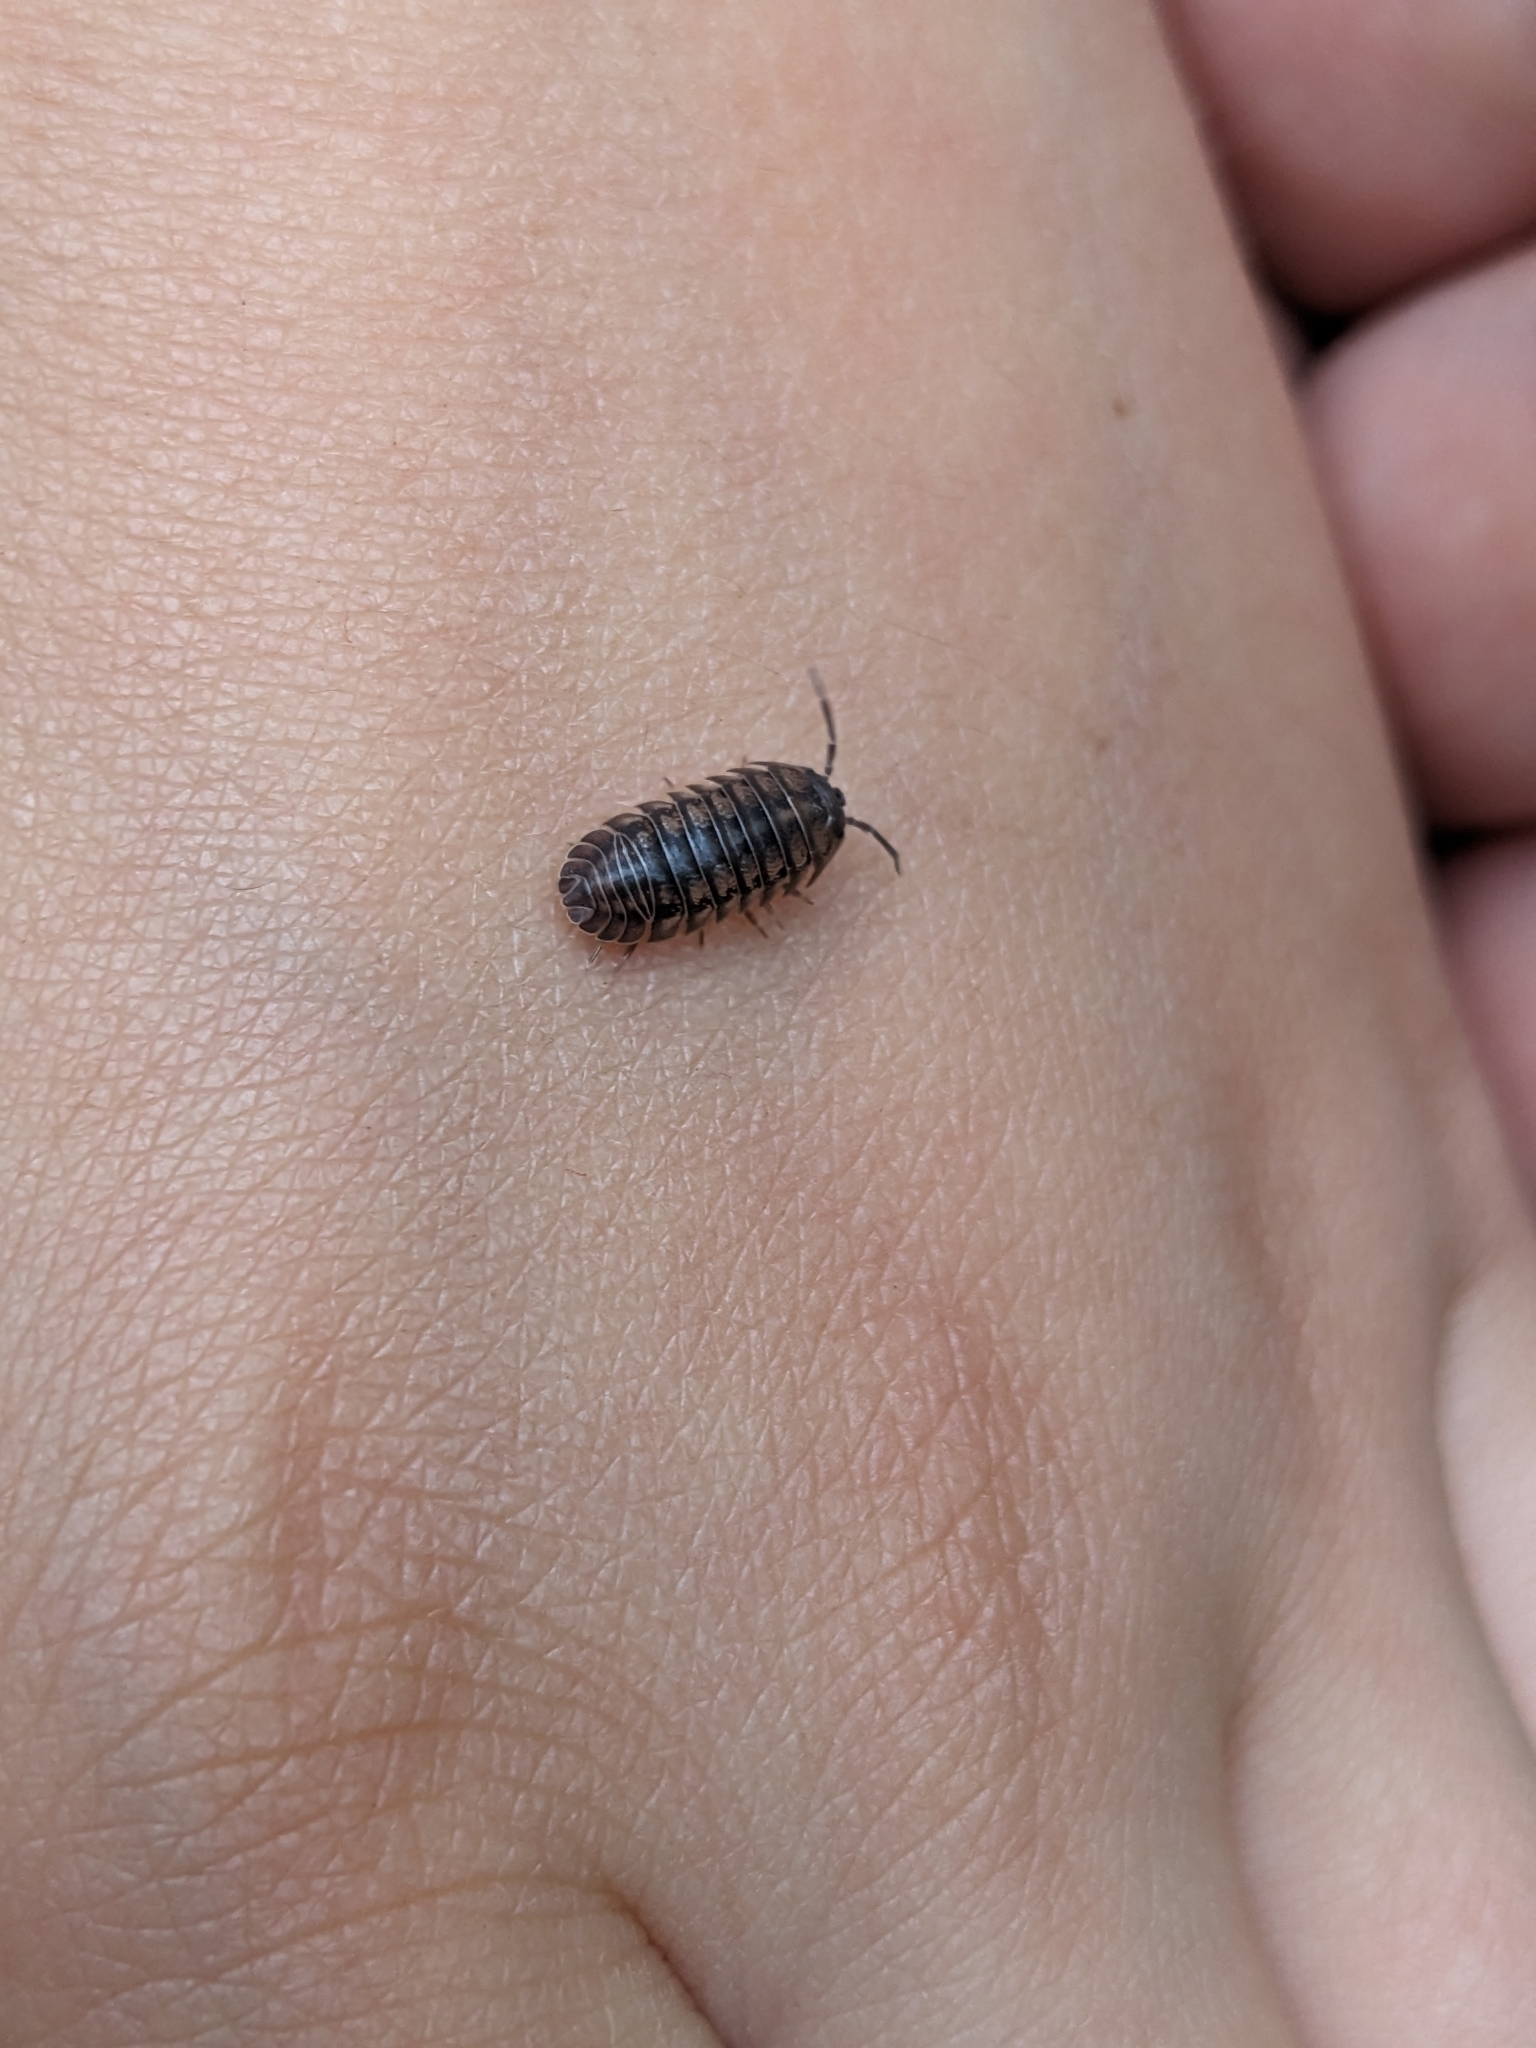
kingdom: Animalia
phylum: Arthropoda
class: Malacostraca
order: Isopoda
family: Armadillidiidae
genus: Armadillidium
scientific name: Armadillidium nasatum
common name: Isopod
